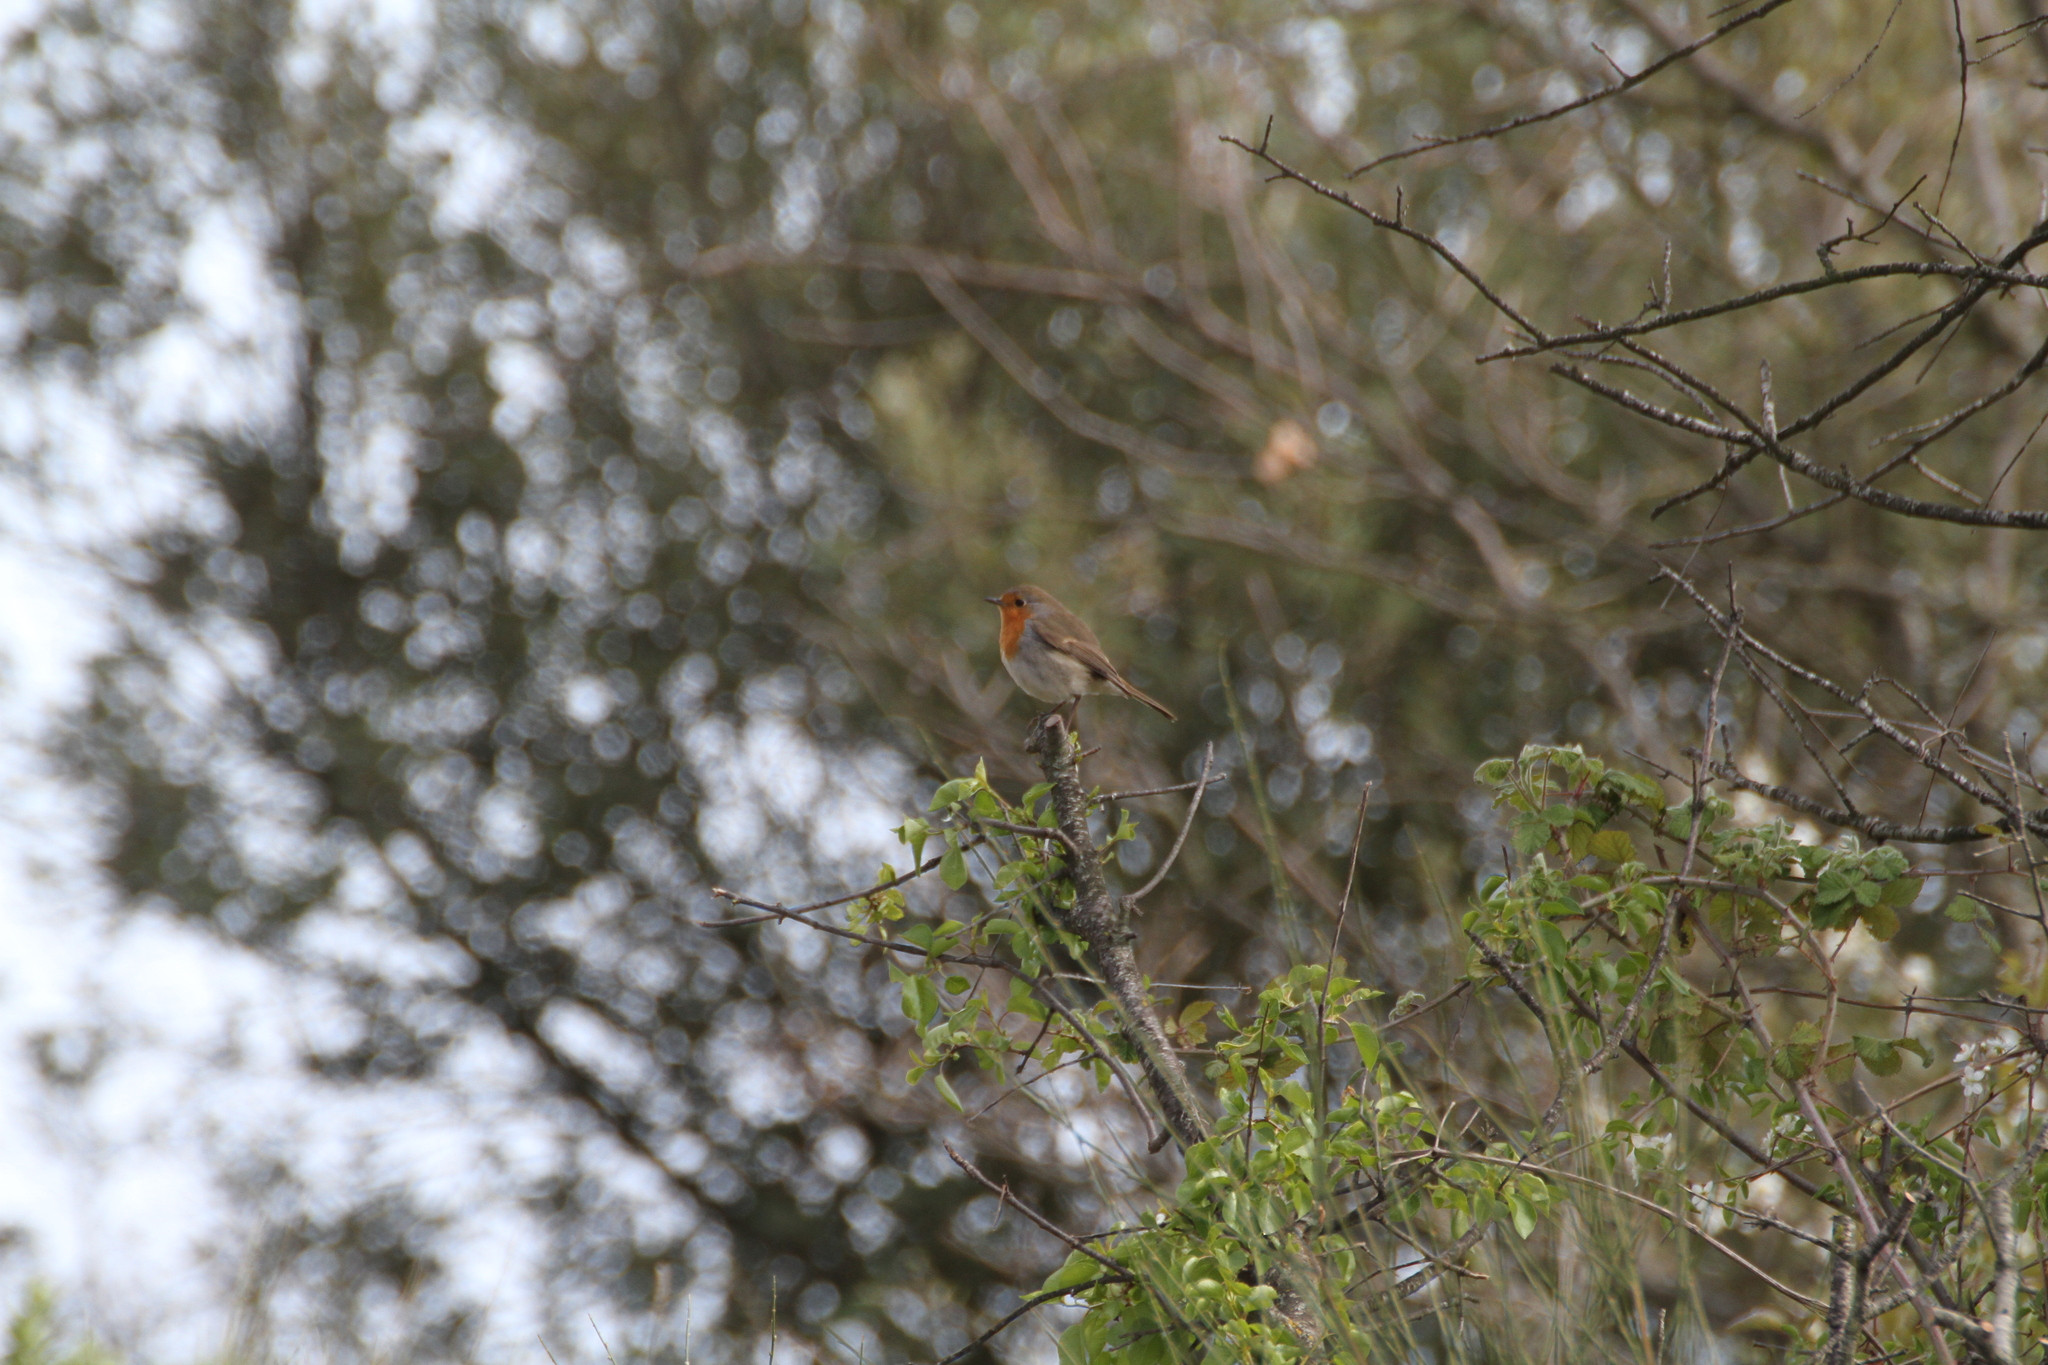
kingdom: Animalia
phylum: Chordata
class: Aves
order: Passeriformes
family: Muscicapidae
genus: Erithacus
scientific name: Erithacus rubecula
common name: European robin
